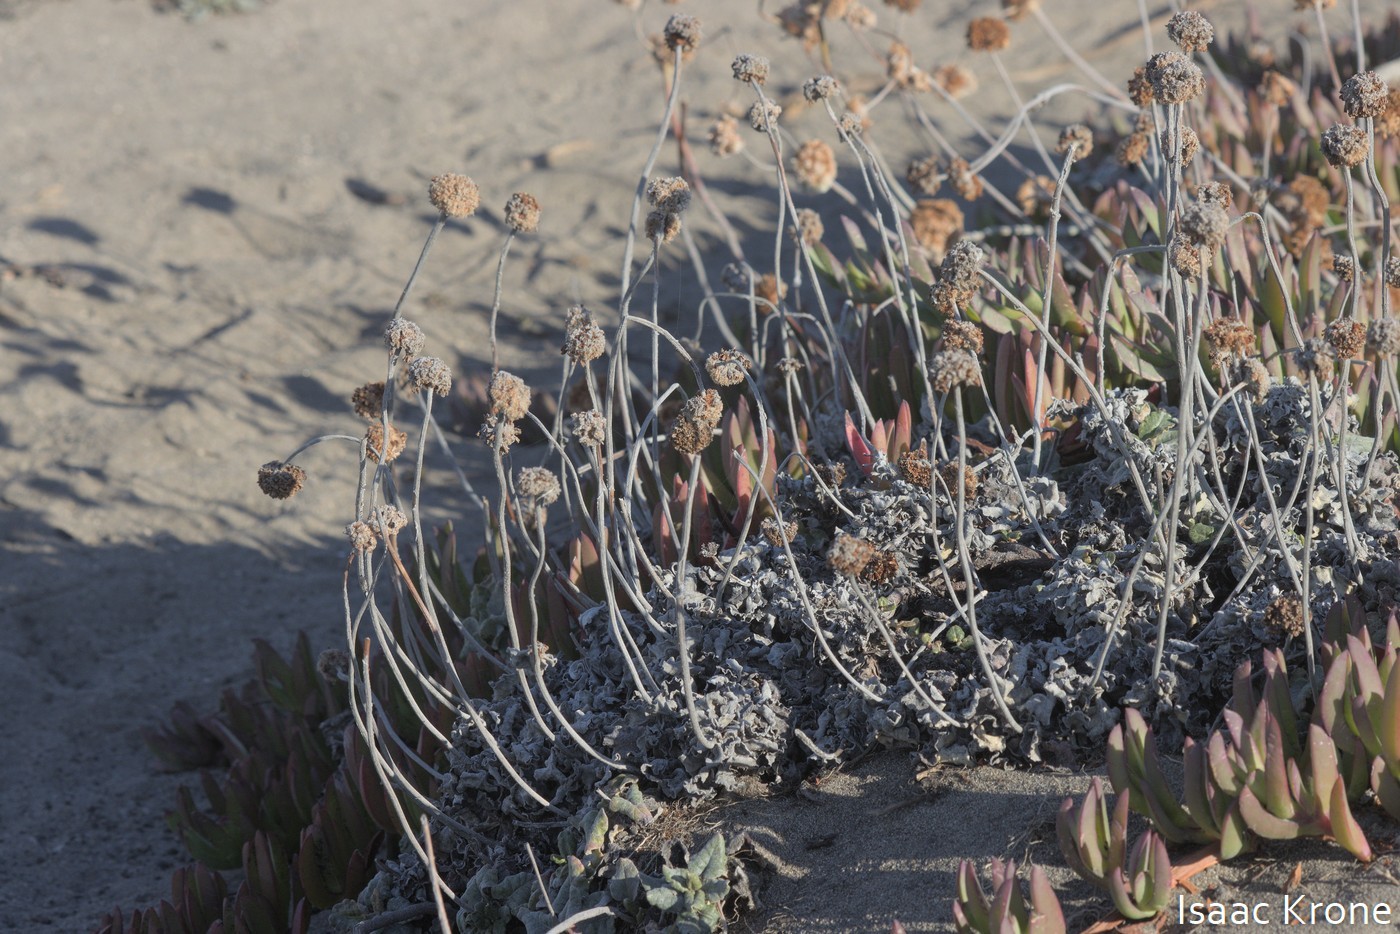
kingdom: Plantae
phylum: Tracheophyta
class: Magnoliopsida
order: Caryophyllales
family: Polygonaceae
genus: Eriogonum
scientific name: Eriogonum latifolium
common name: Seaside wild buckwheat
